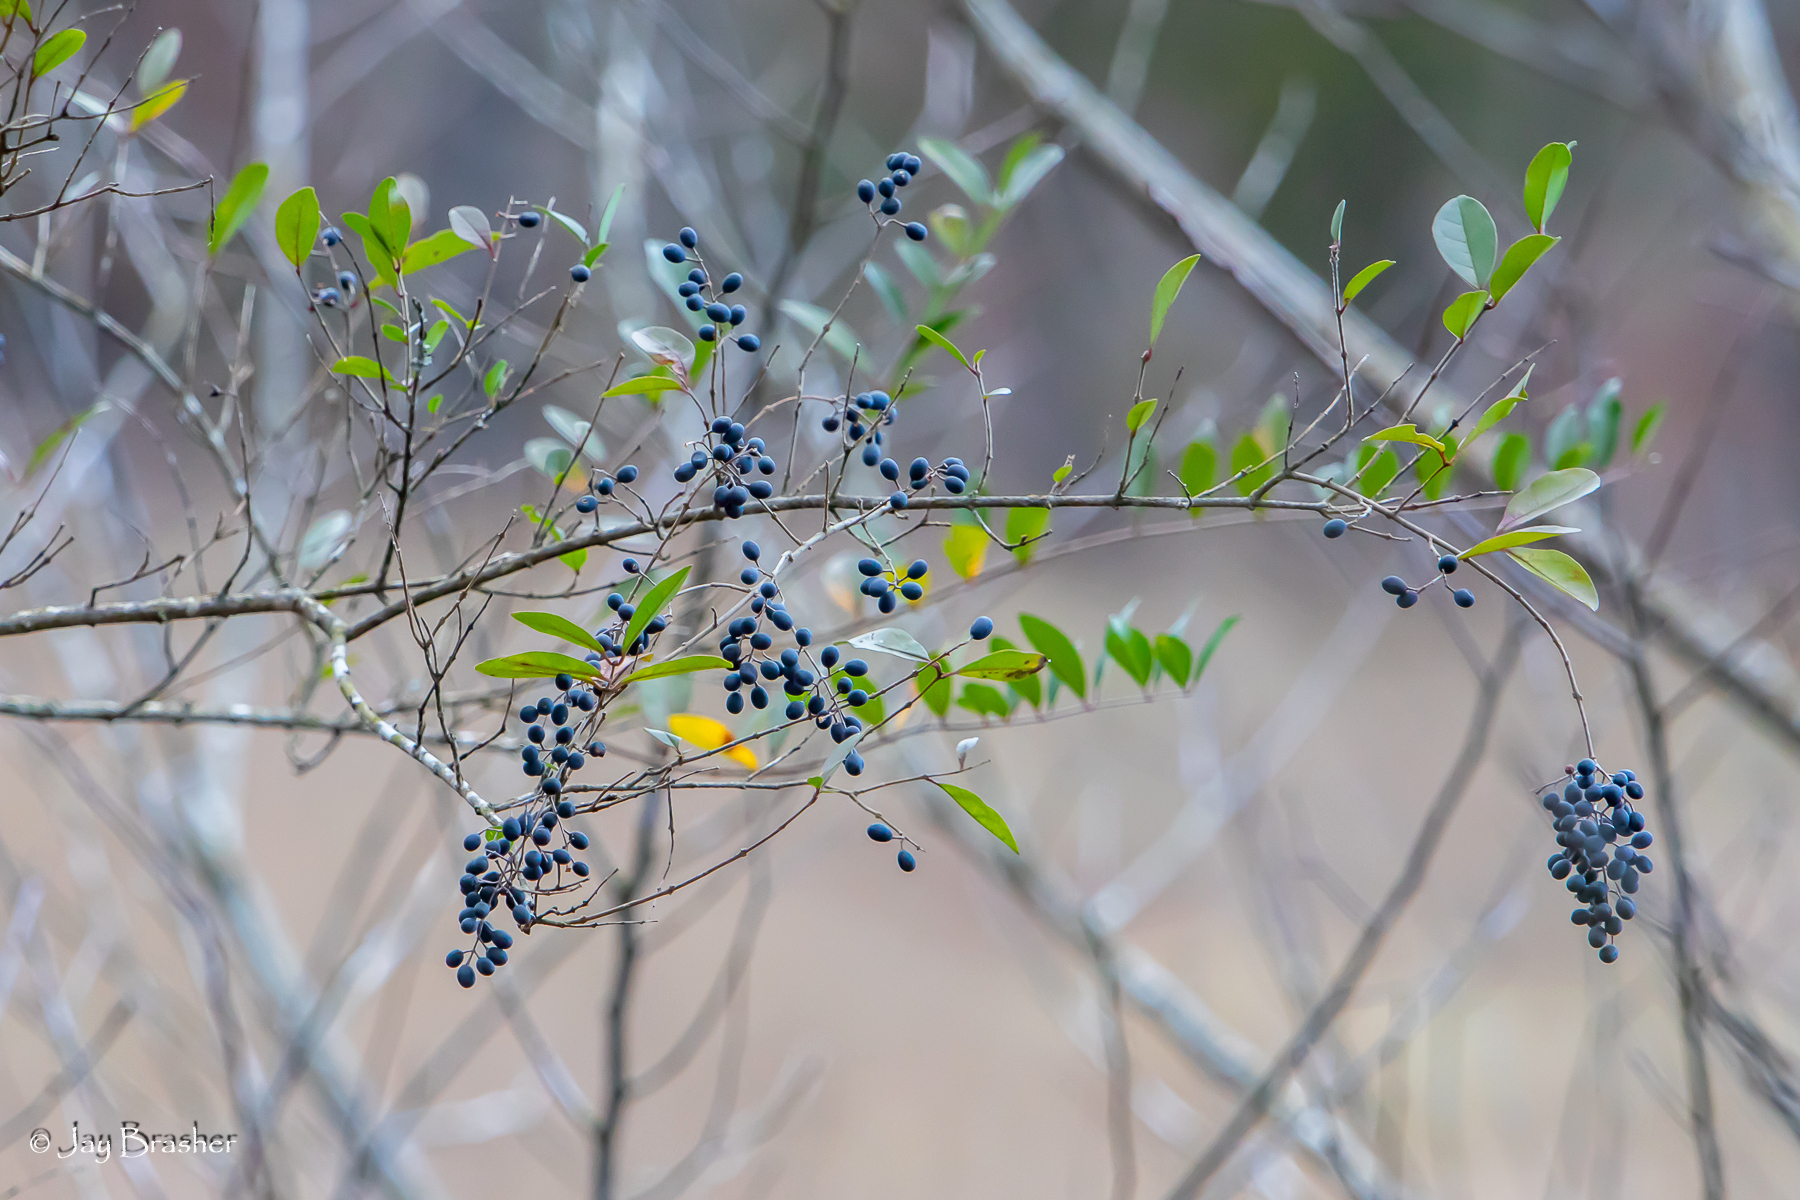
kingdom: Plantae
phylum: Tracheophyta
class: Magnoliopsida
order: Lamiales
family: Oleaceae
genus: Ligustrum
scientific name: Ligustrum sinense
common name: Chinese privet
